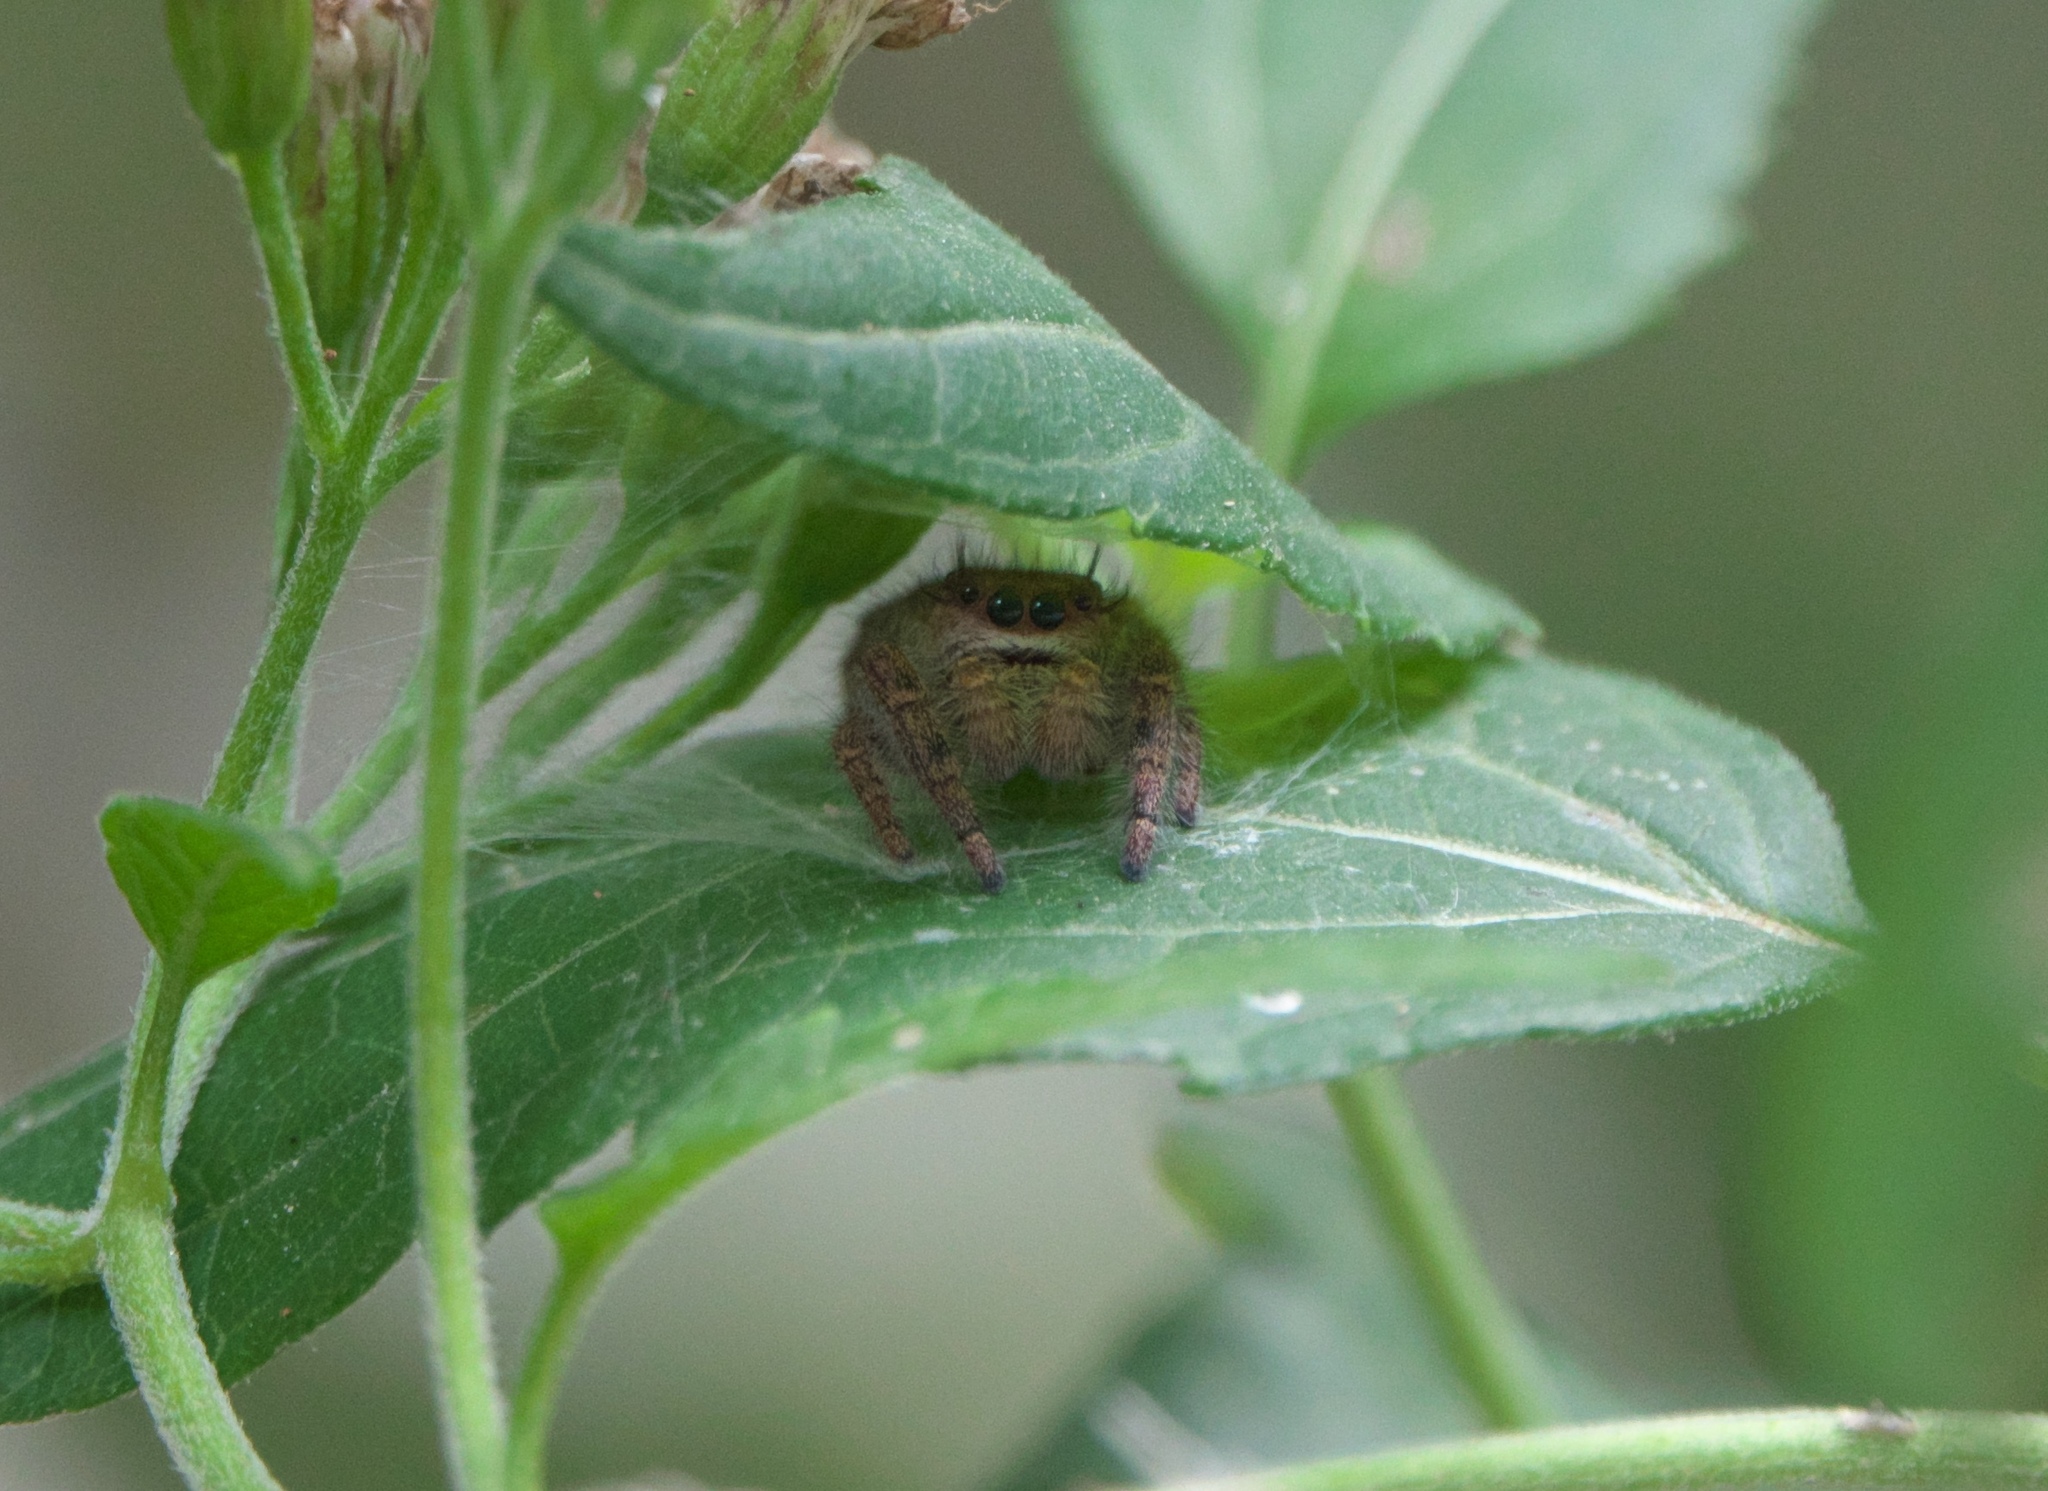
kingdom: Animalia
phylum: Arthropoda
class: Arachnida
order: Araneae
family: Salticidae
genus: Phidippus
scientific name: Phidippus princeps
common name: Grayish jumping spider
